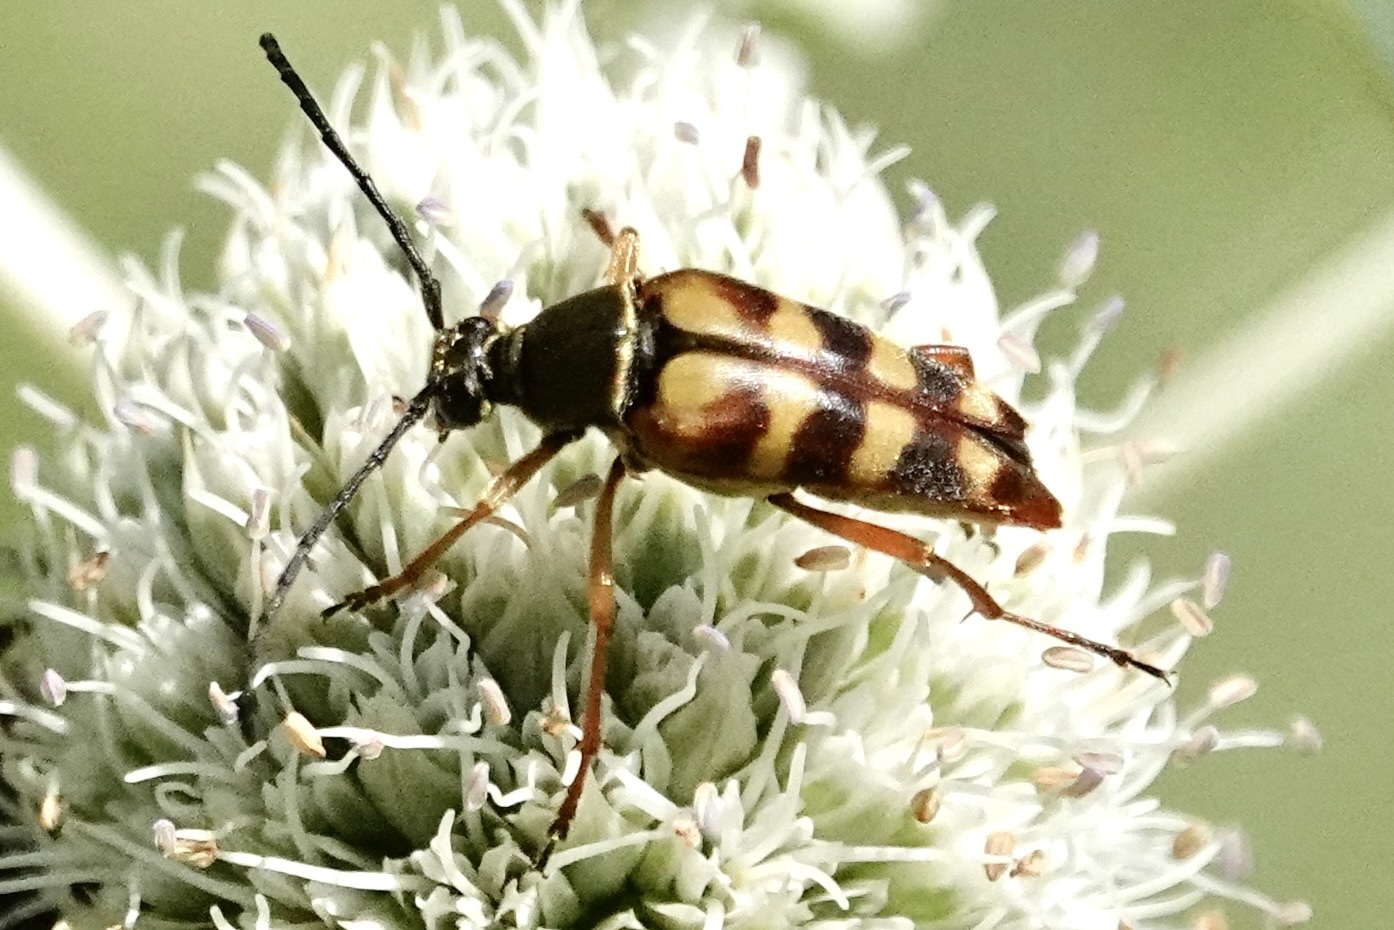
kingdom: Animalia
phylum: Arthropoda
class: Insecta
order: Coleoptera
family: Cerambycidae
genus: Typocerus
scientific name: Typocerus velutinus
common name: Banded longhorn beetle
